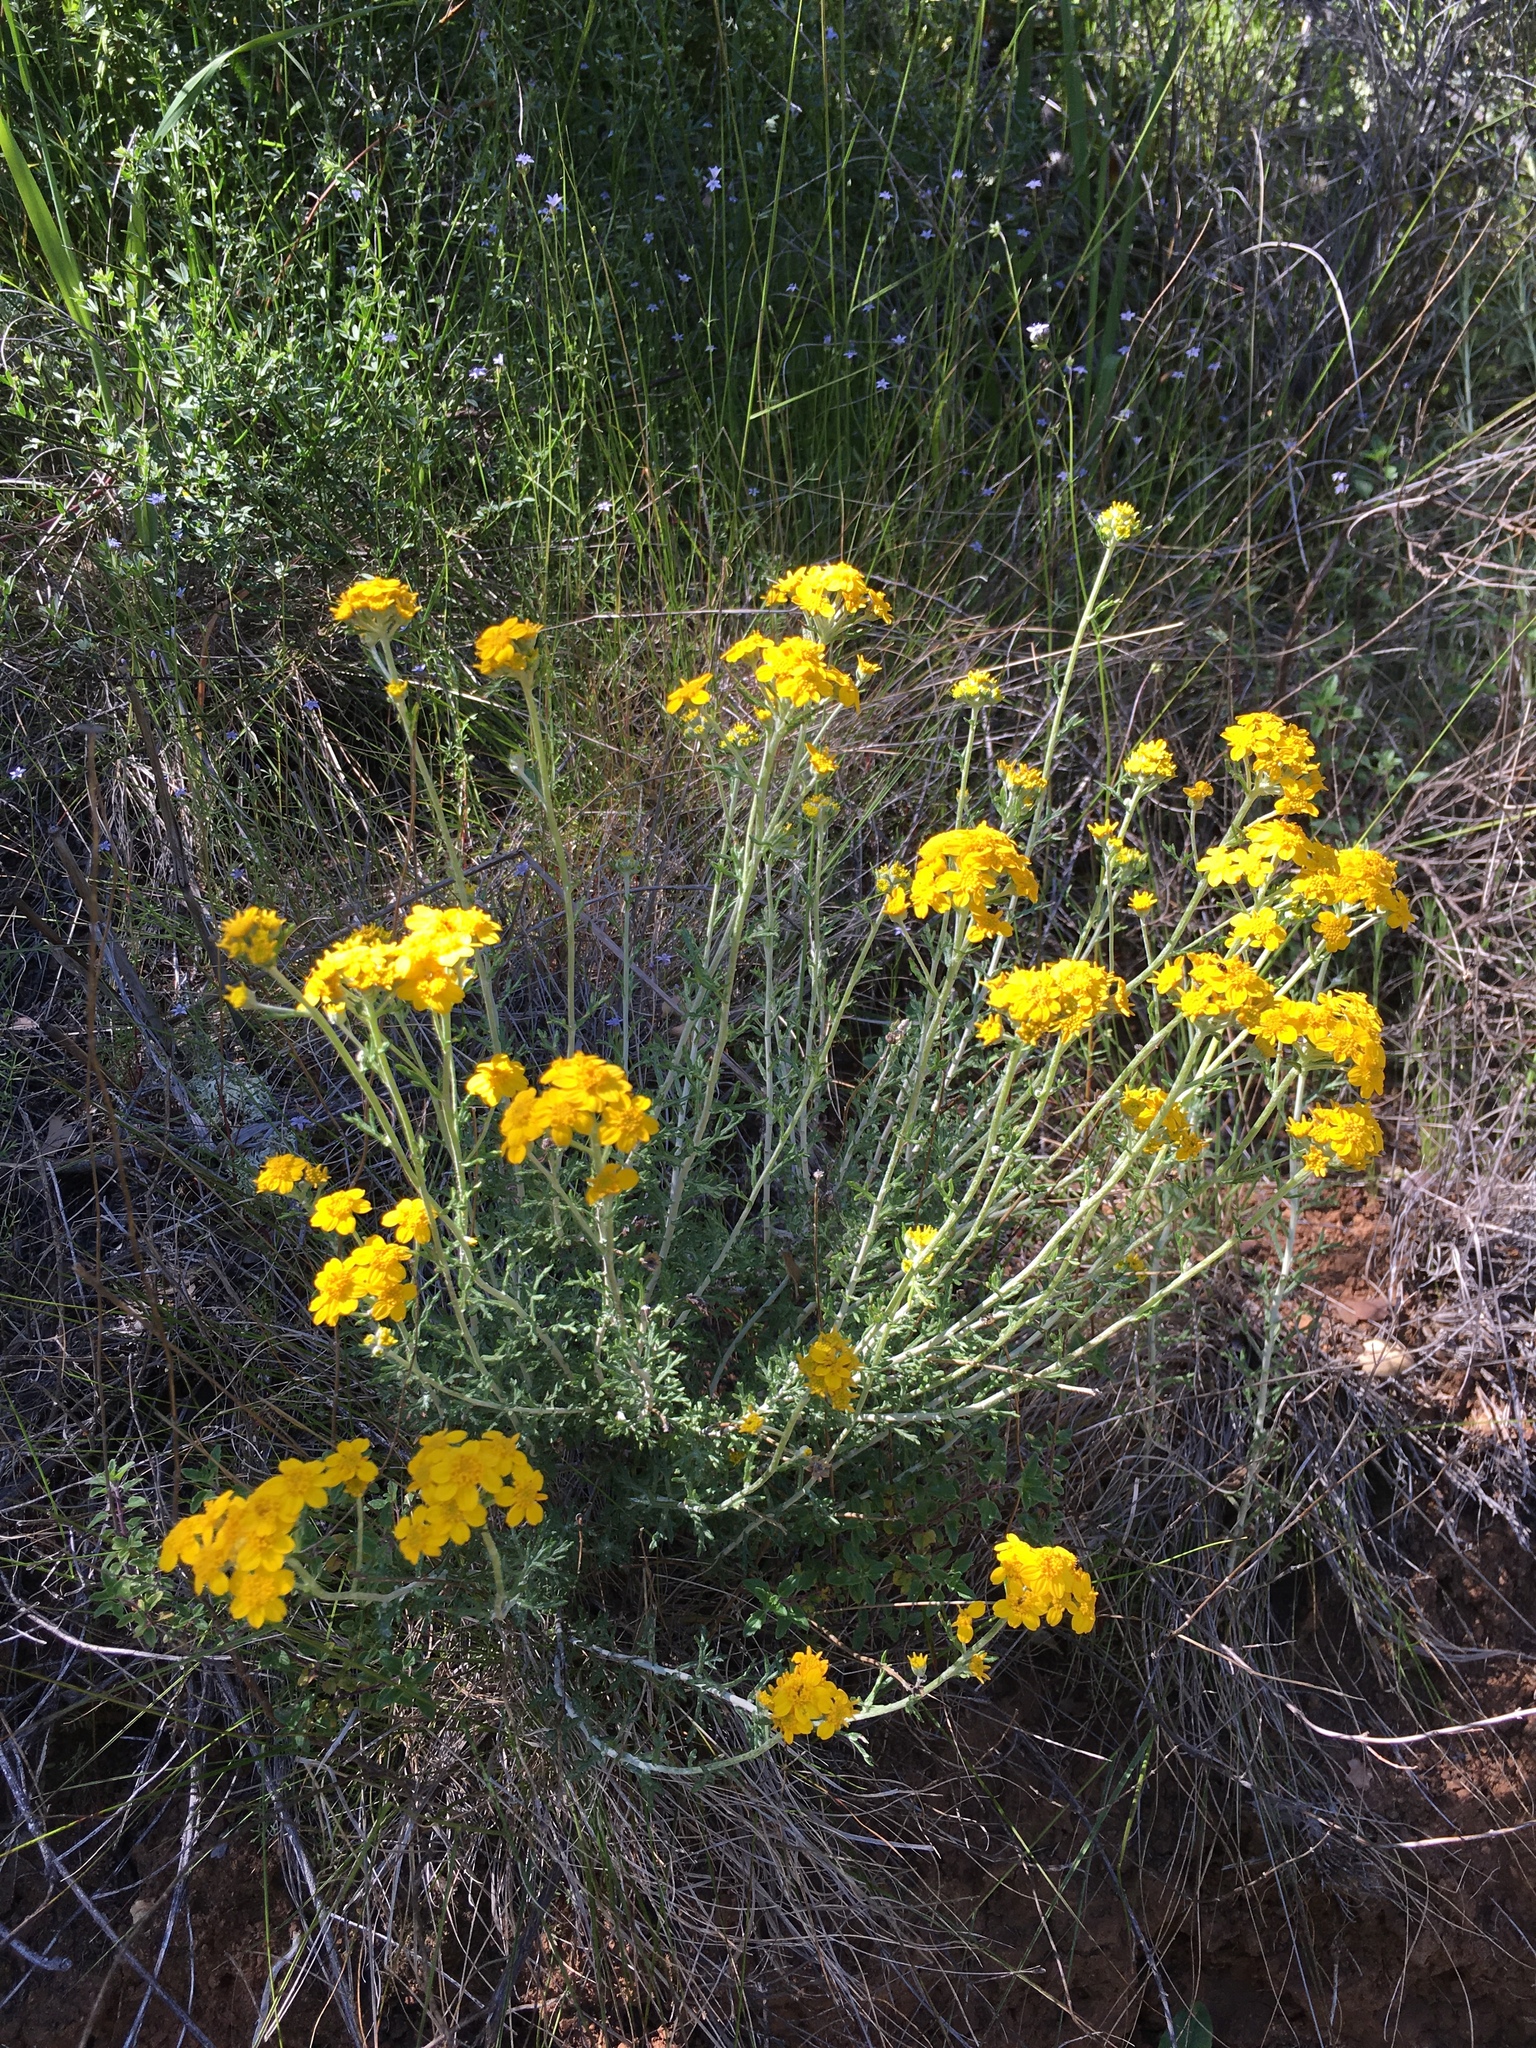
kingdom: Plantae
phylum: Tracheophyta
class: Magnoliopsida
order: Asterales
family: Asteraceae
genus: Eriophyllum
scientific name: Eriophyllum confertiflorum
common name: Golden-yarrow
